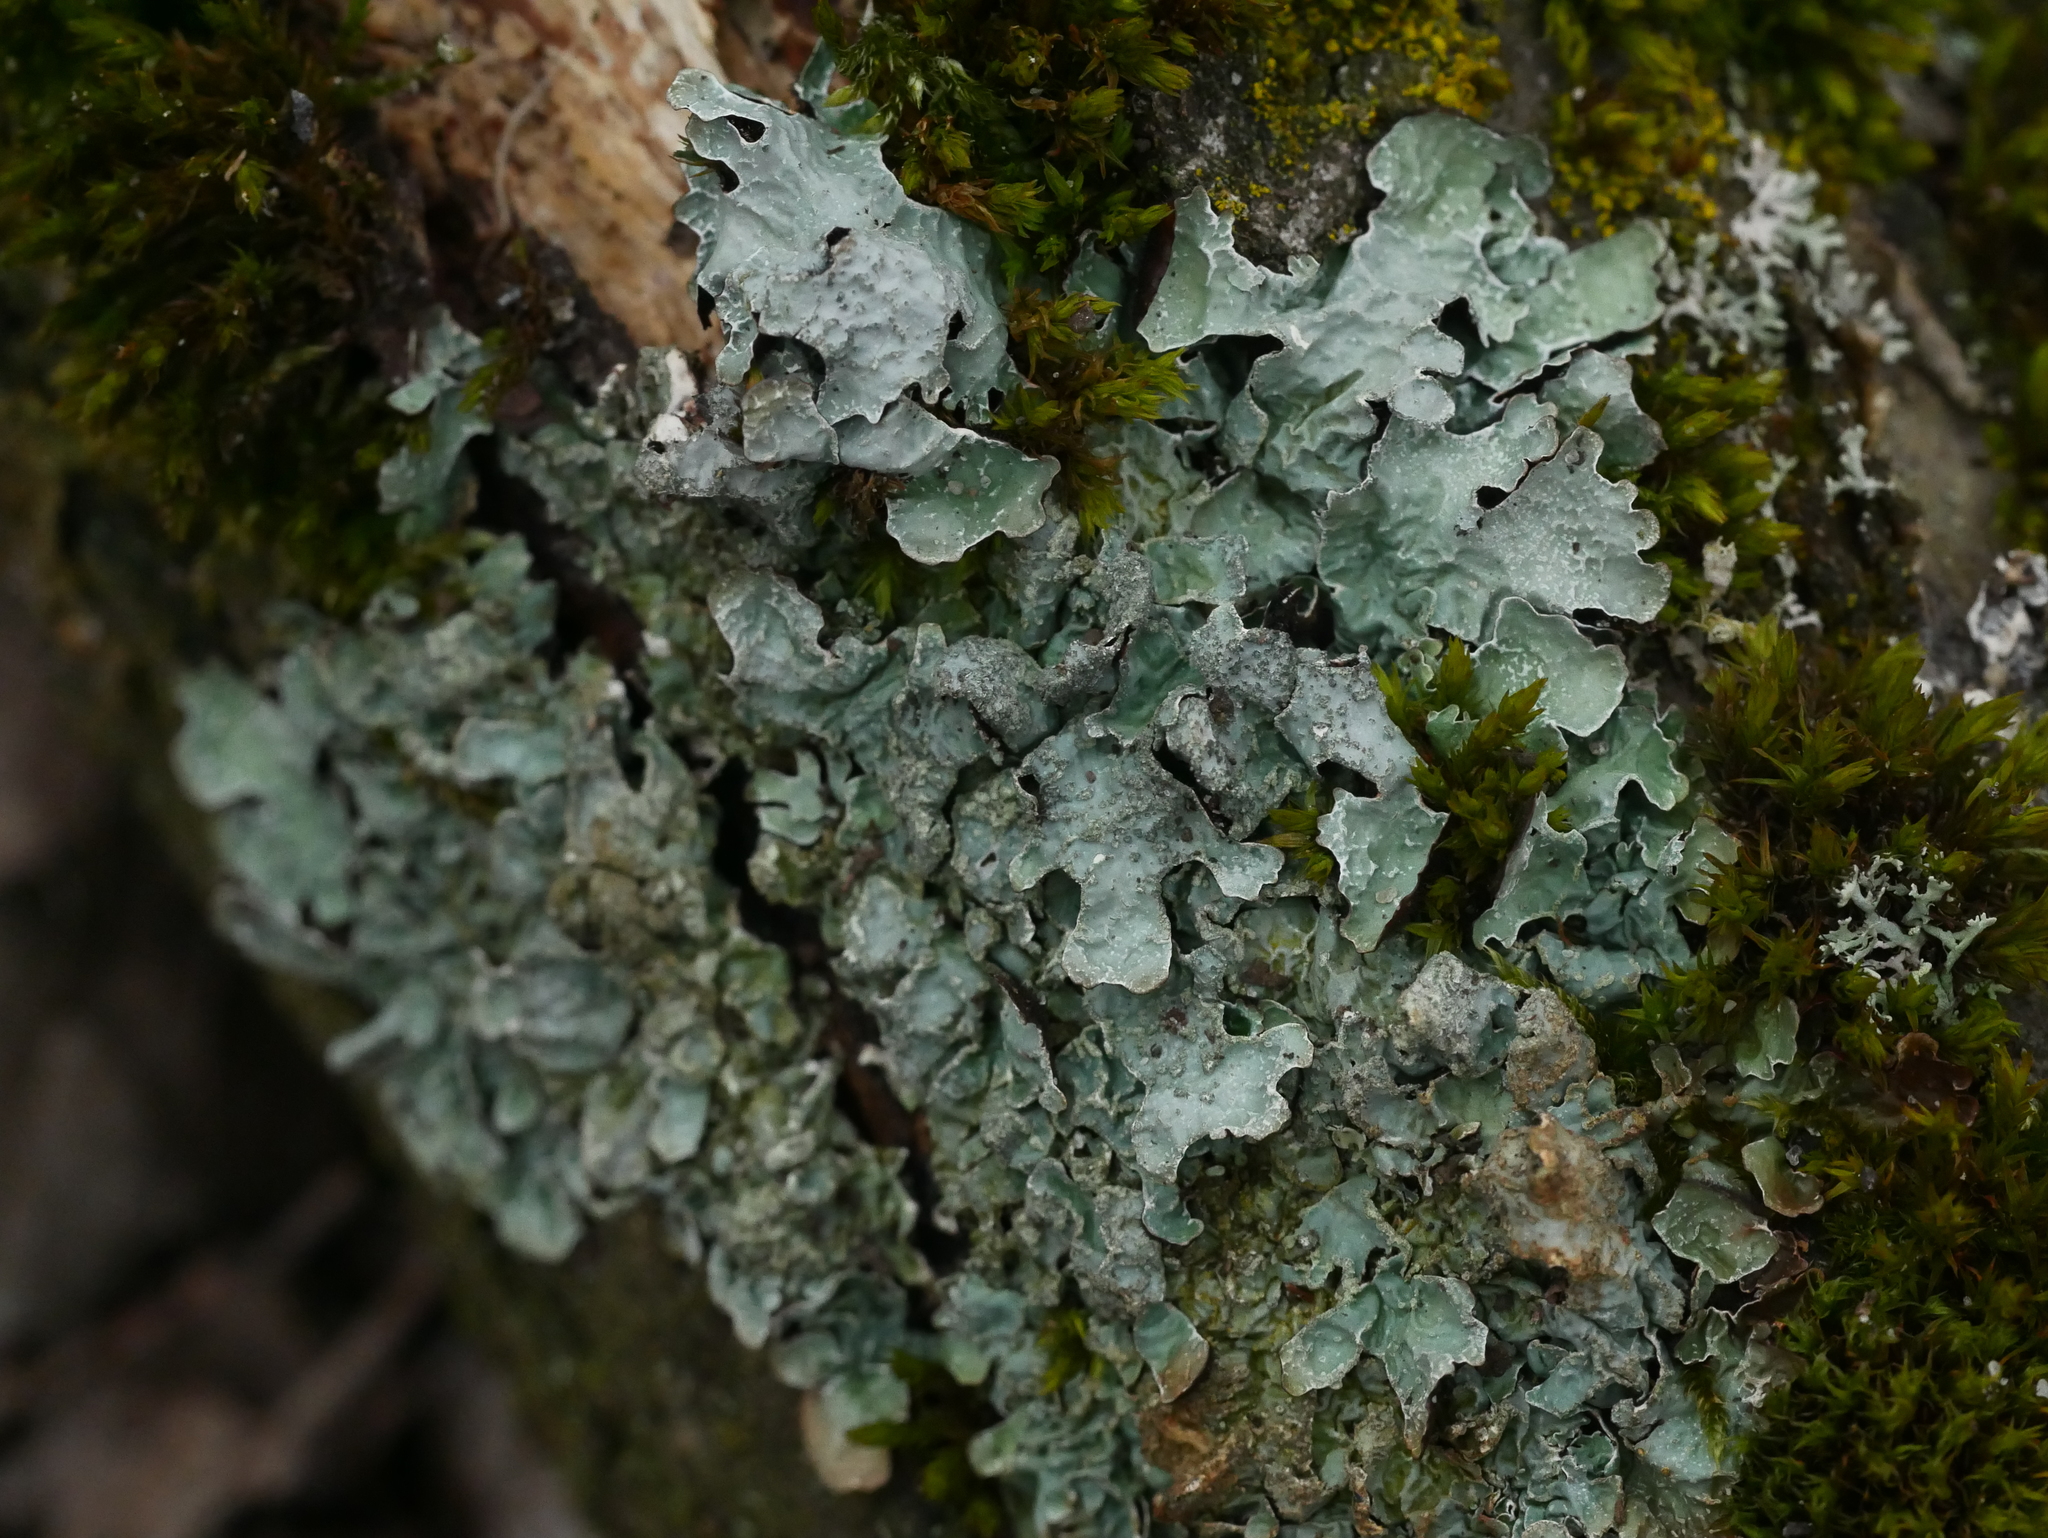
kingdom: Fungi
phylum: Ascomycota
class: Lecanoromycetes
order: Lecanorales
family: Parmeliaceae
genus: Parmelia
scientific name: Parmelia sulcata
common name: Netted shield lichen
